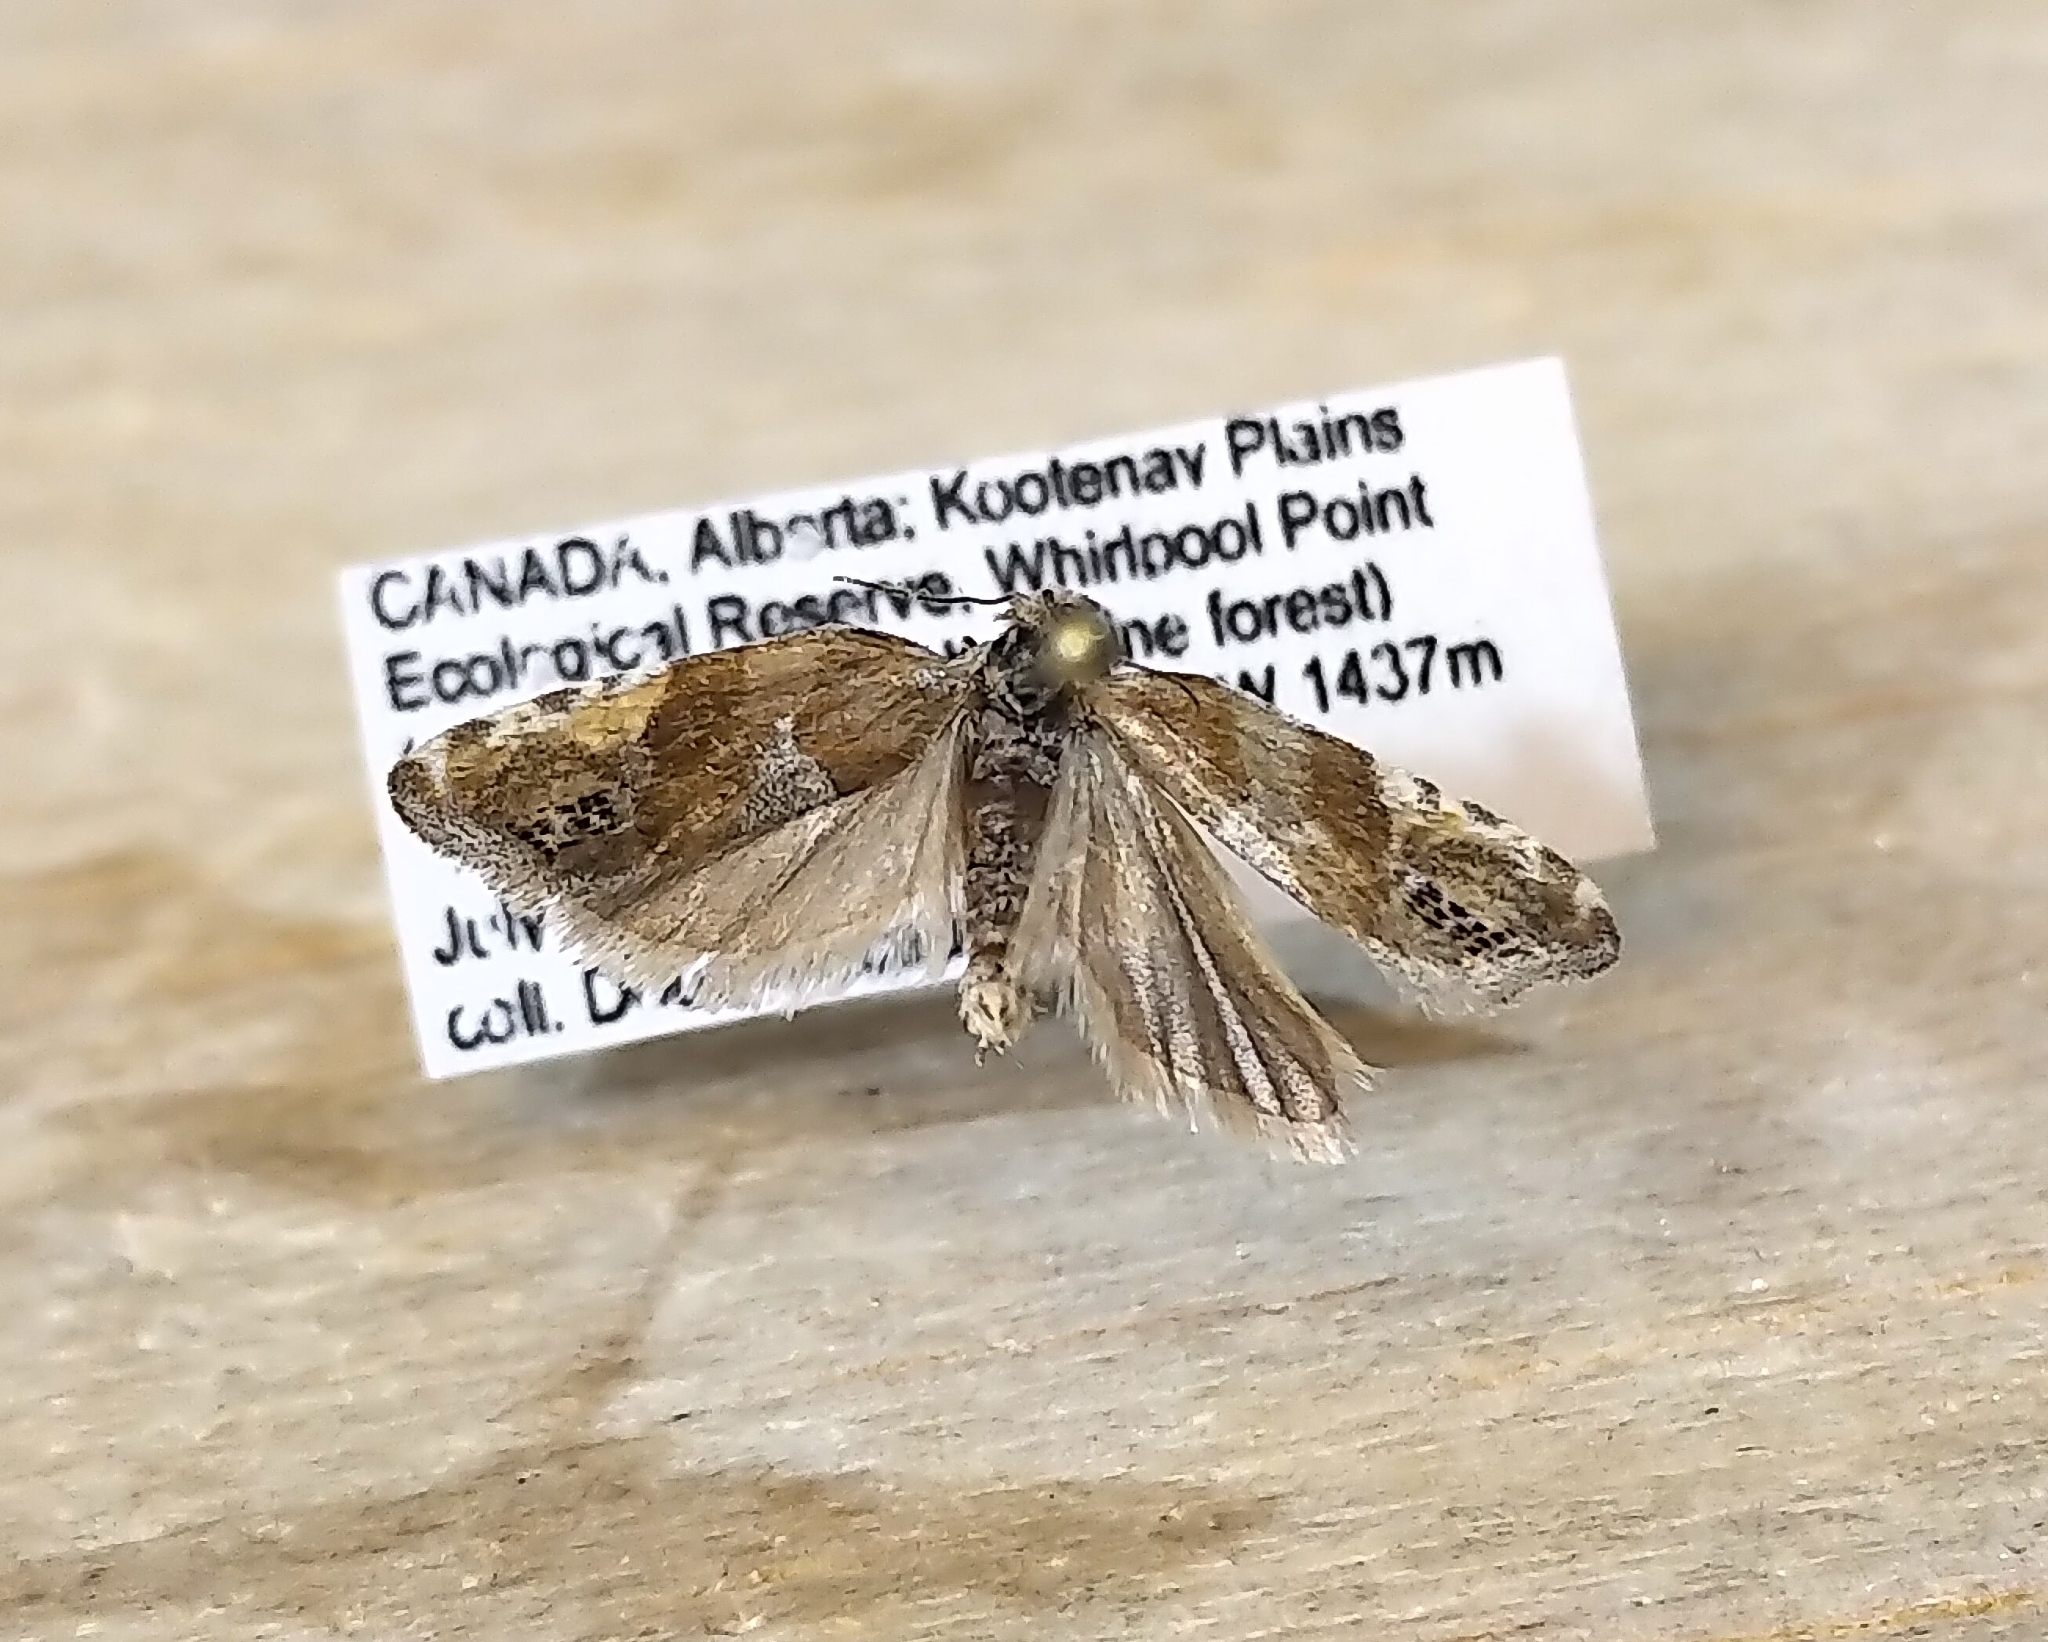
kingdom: Animalia
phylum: Arthropoda
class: Insecta
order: Lepidoptera
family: Tortricidae
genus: Eucosma
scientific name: Eucosma youngi
